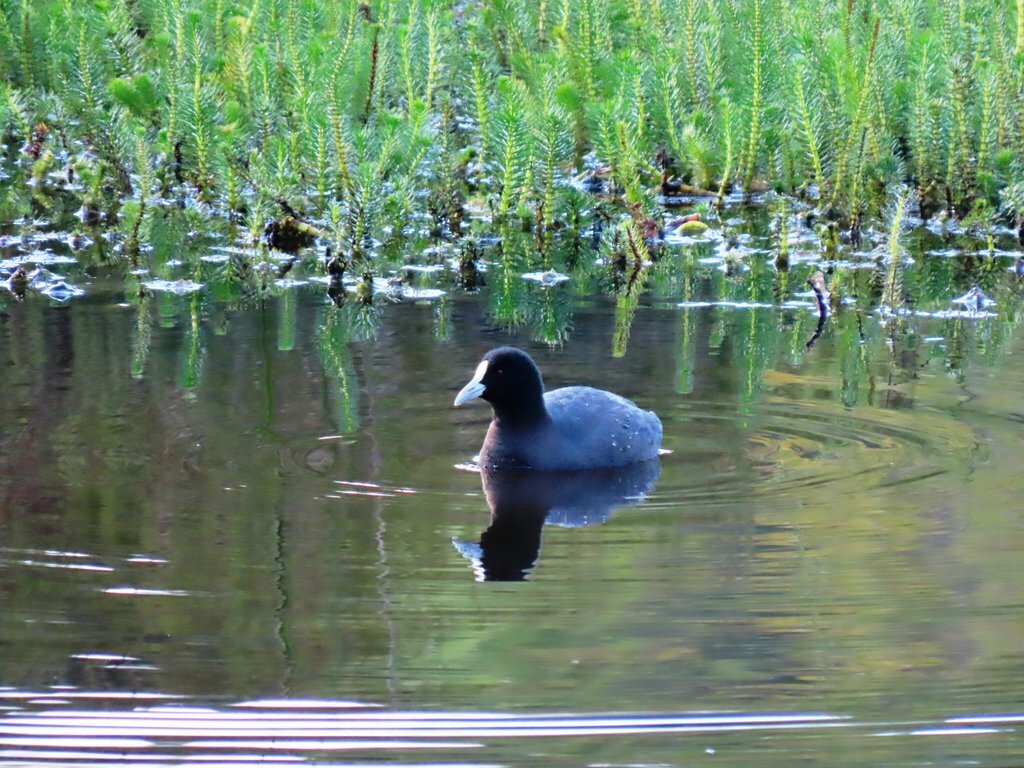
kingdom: Animalia
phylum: Chordata
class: Aves
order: Gruiformes
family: Rallidae
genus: Fulica
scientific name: Fulica atra
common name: Eurasian coot
